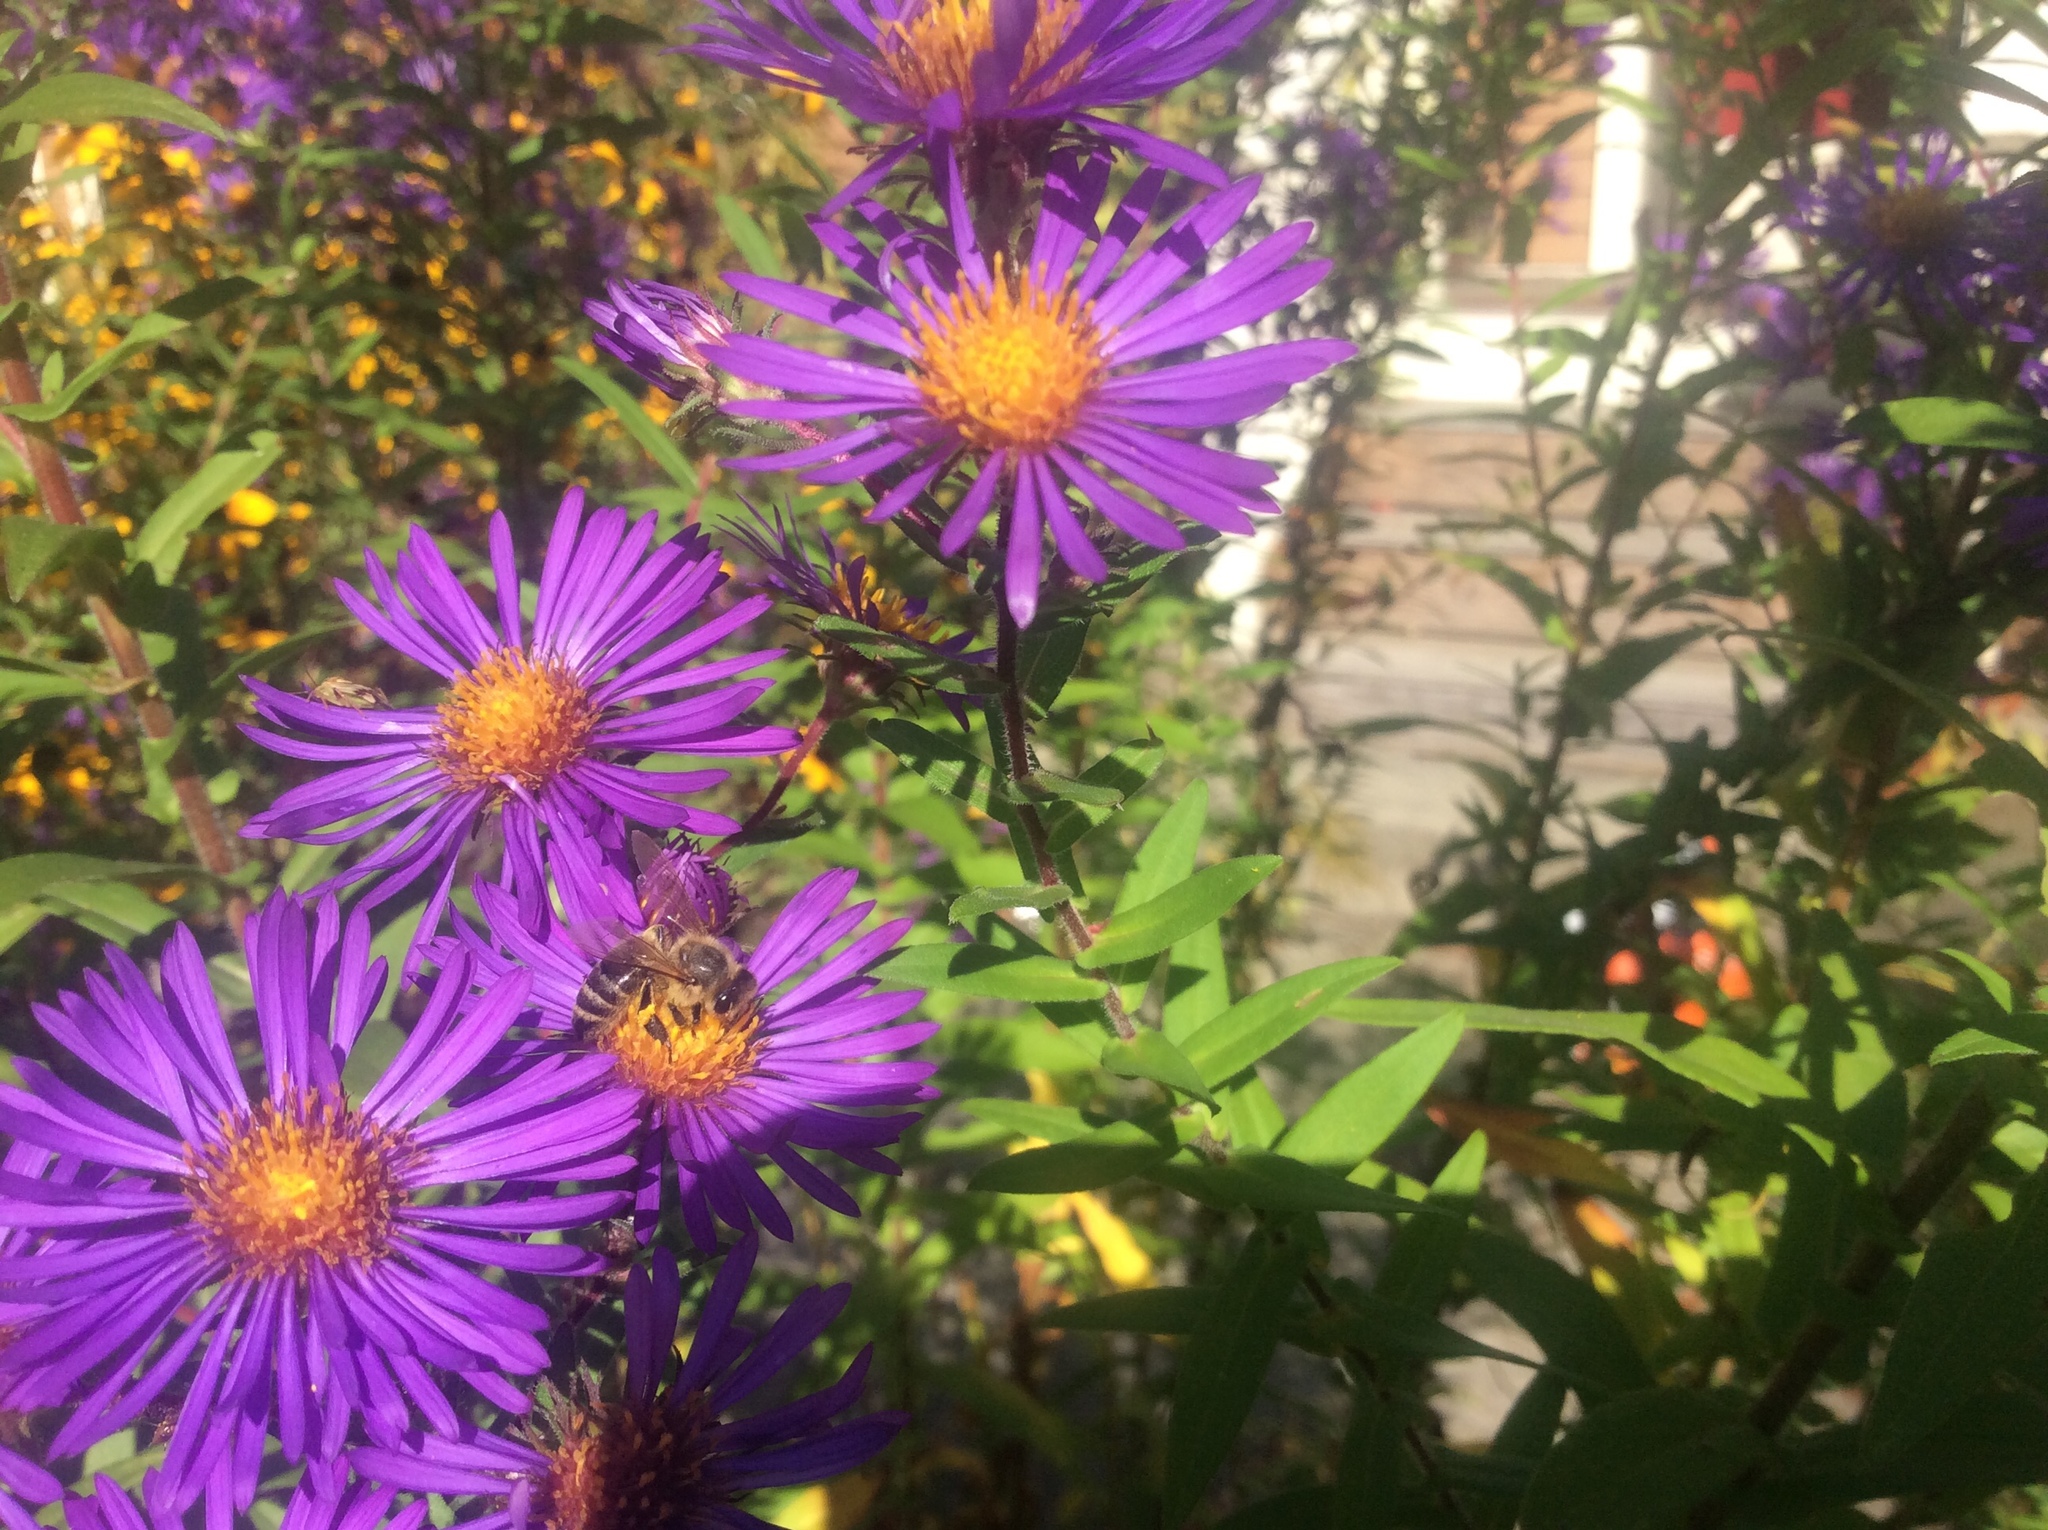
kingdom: Animalia
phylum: Arthropoda
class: Insecta
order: Hymenoptera
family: Apidae
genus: Apis
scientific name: Apis mellifera
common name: Honey bee
